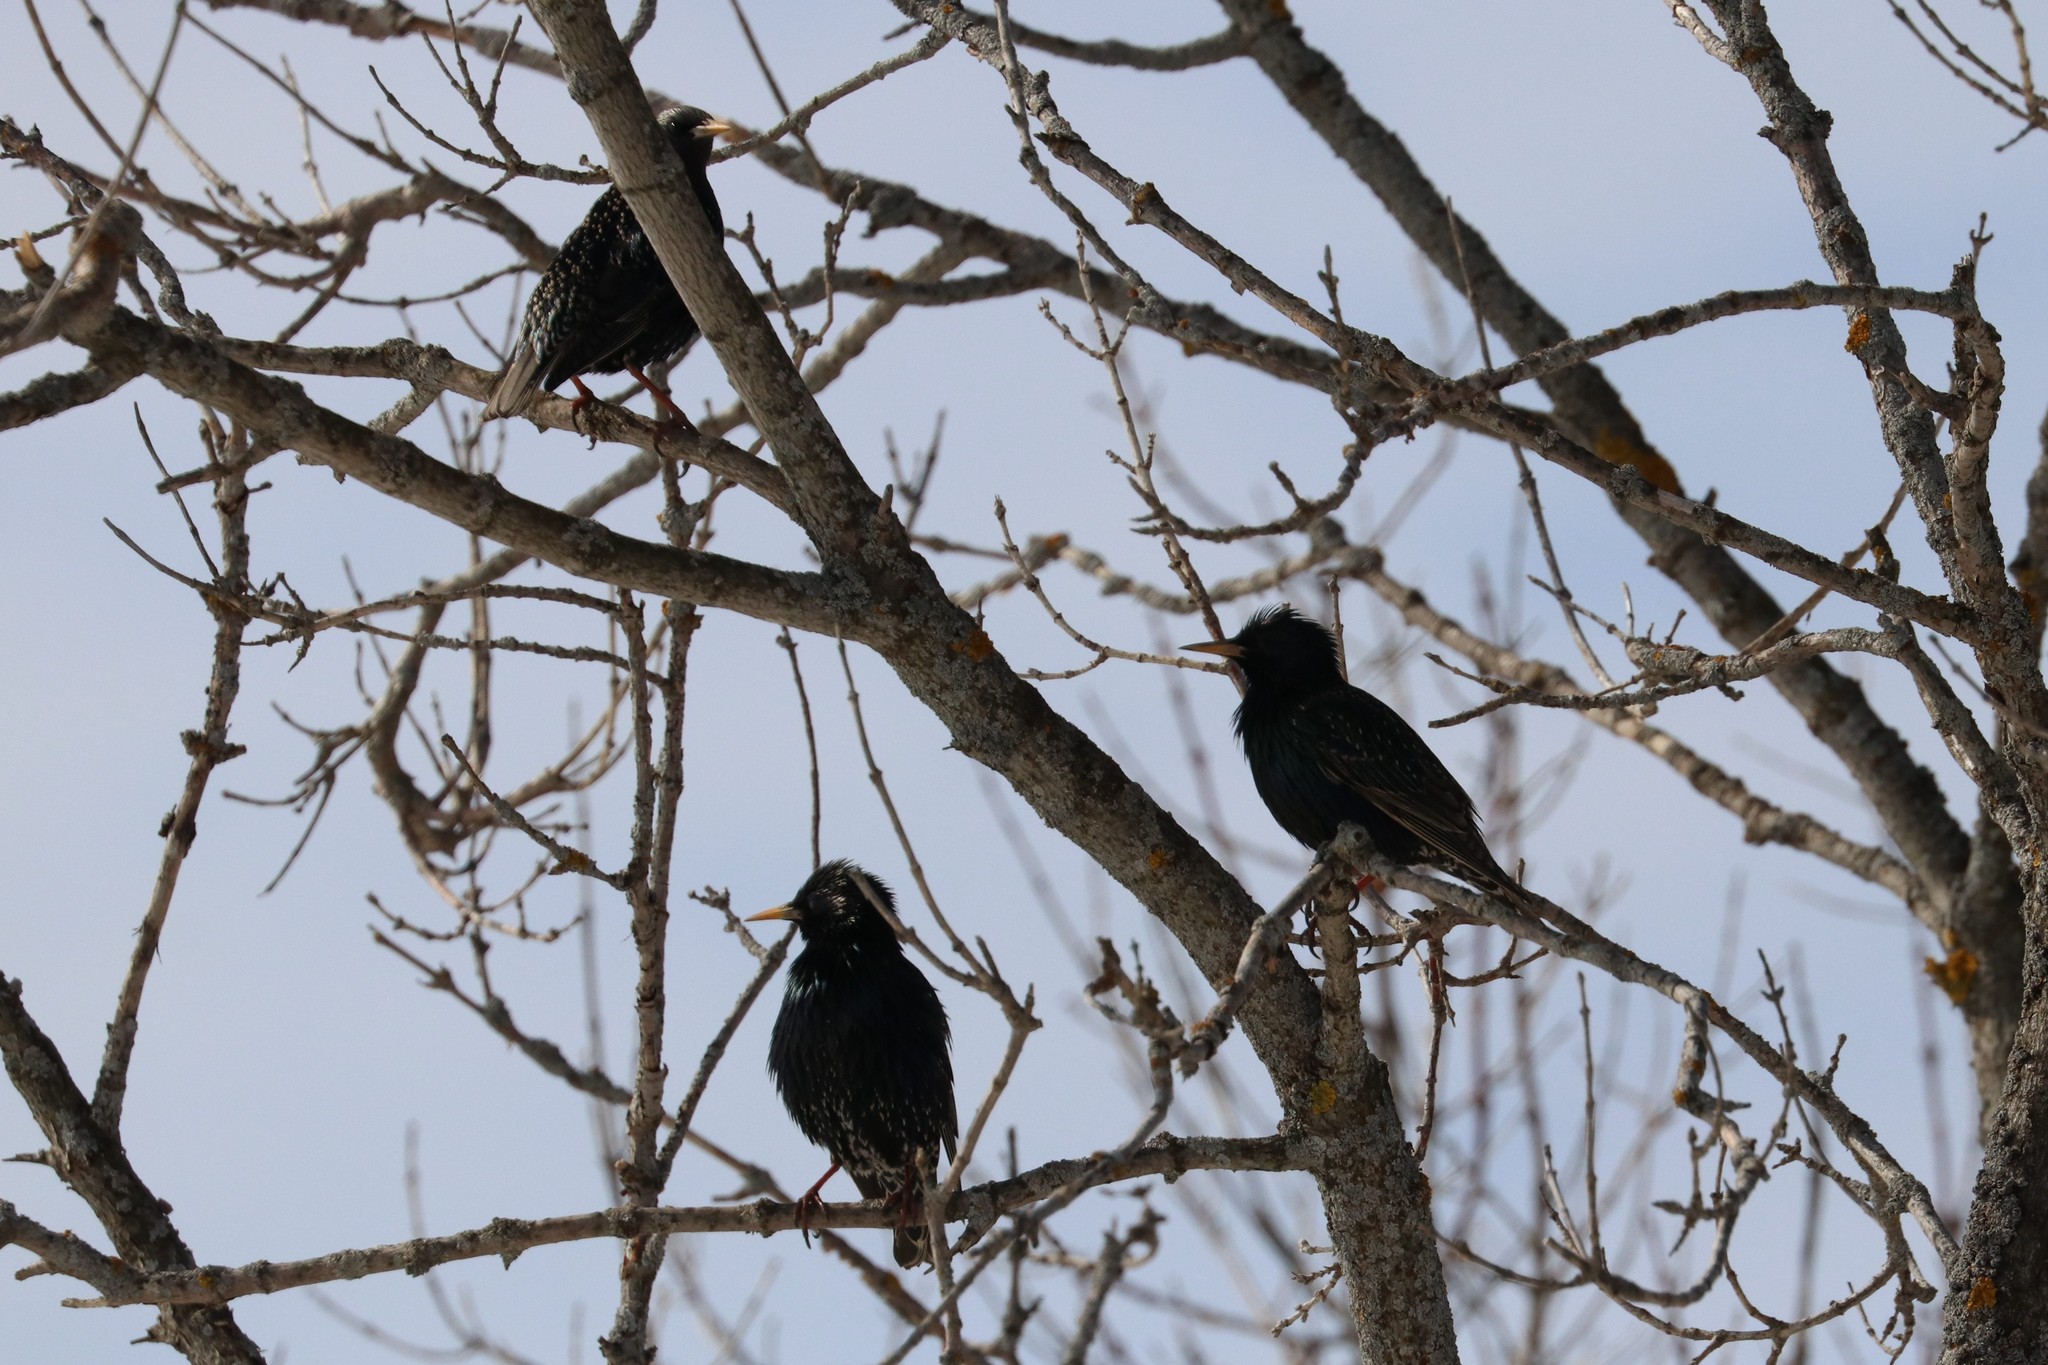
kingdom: Animalia
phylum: Chordata
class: Aves
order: Passeriformes
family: Sturnidae
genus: Sturnus
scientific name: Sturnus vulgaris
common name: Common starling
